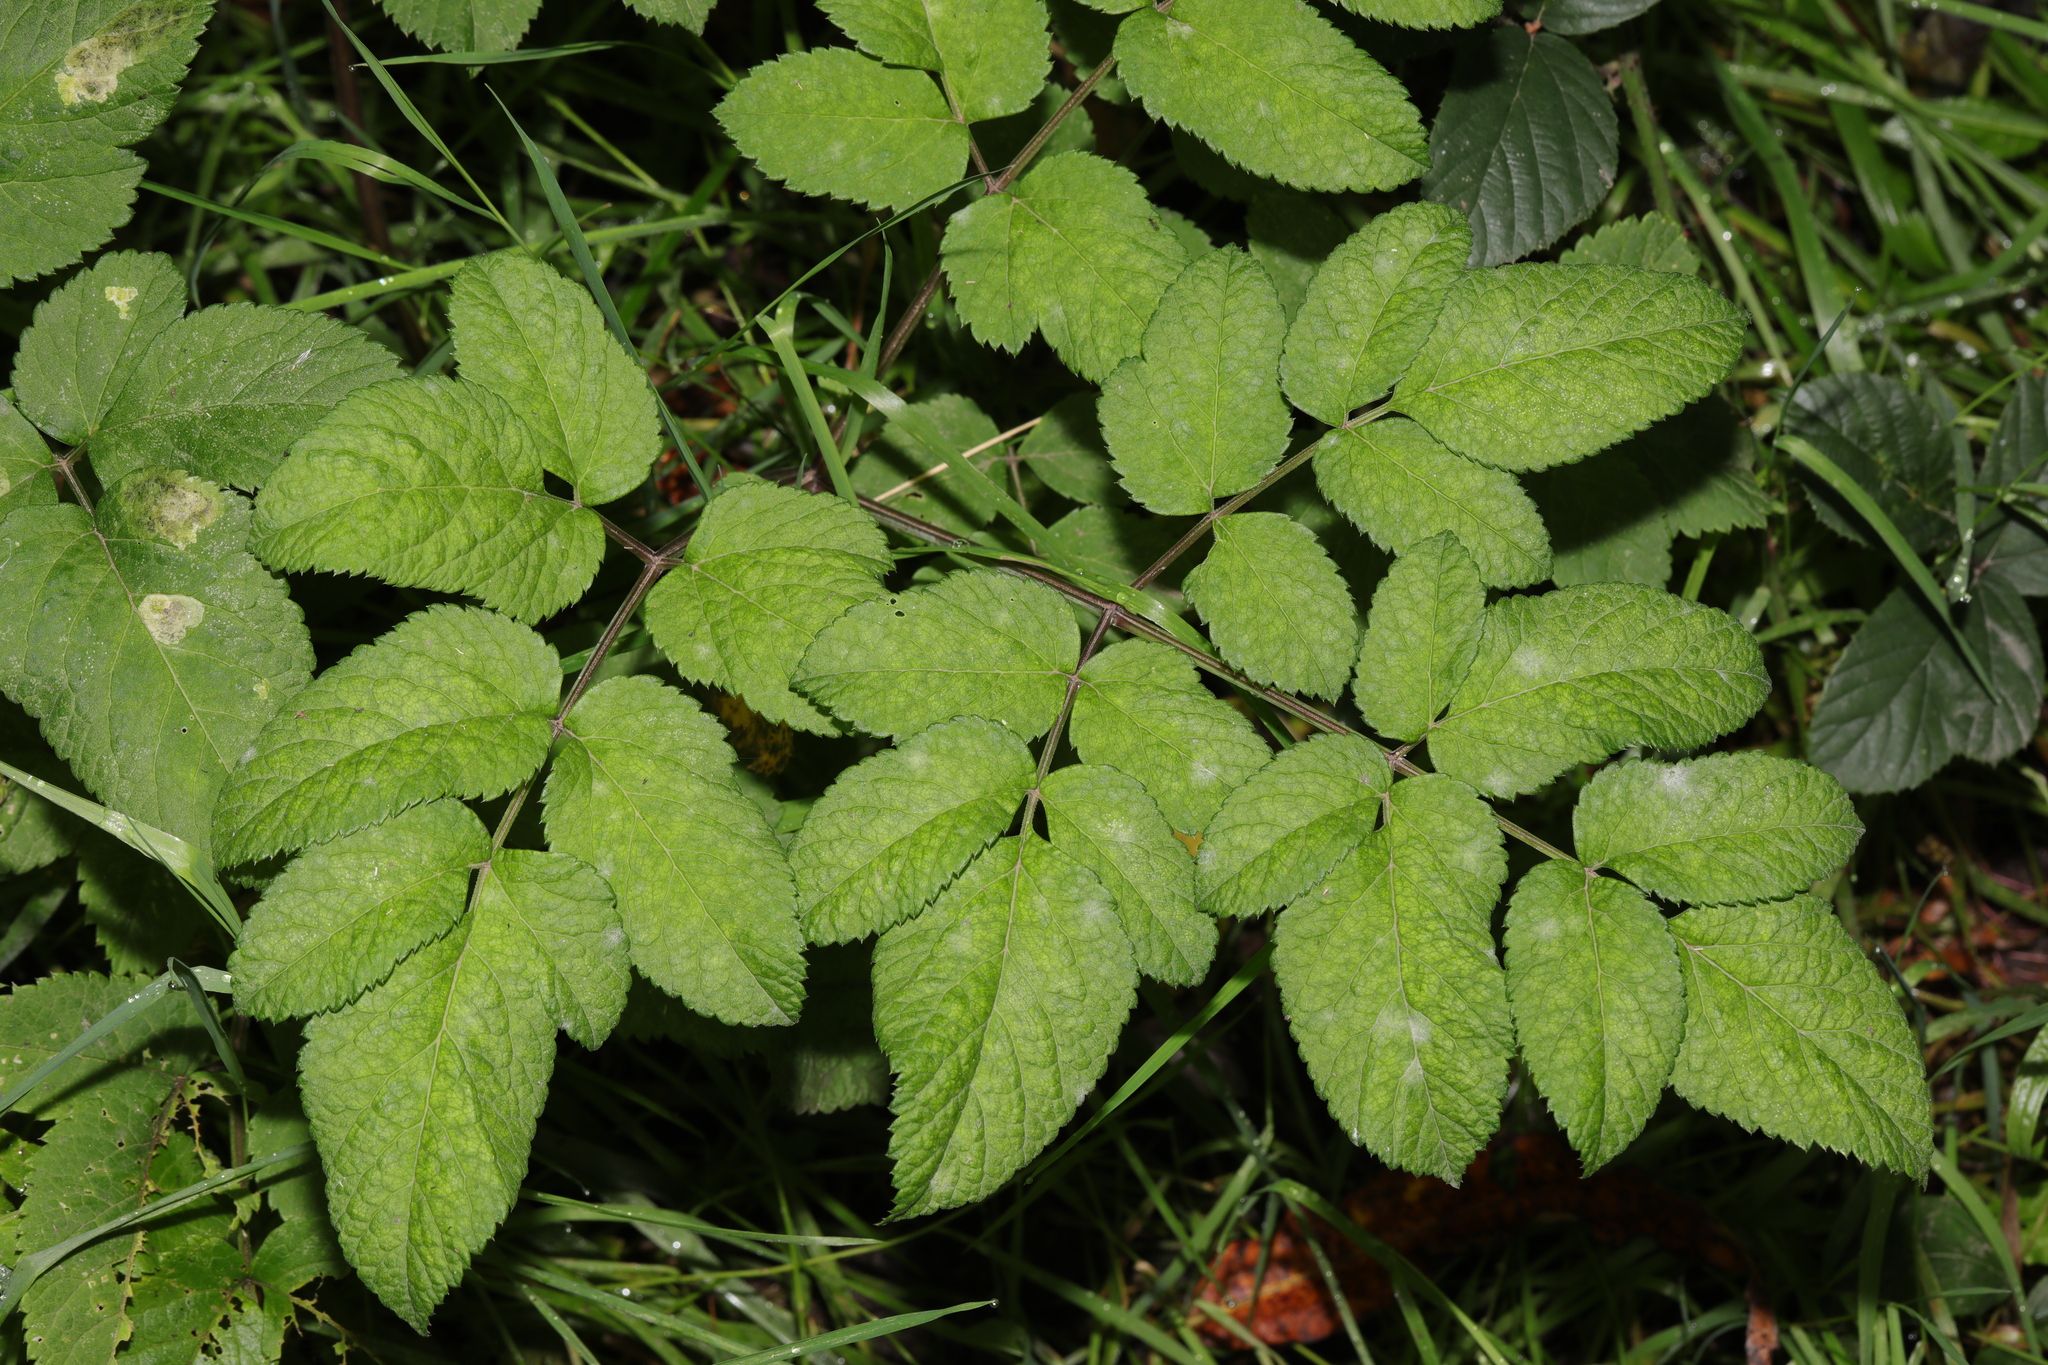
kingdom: Plantae
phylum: Tracheophyta
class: Magnoliopsida
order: Apiales
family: Apiaceae
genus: Angelica
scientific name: Angelica sylvestris
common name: Wild angelica
